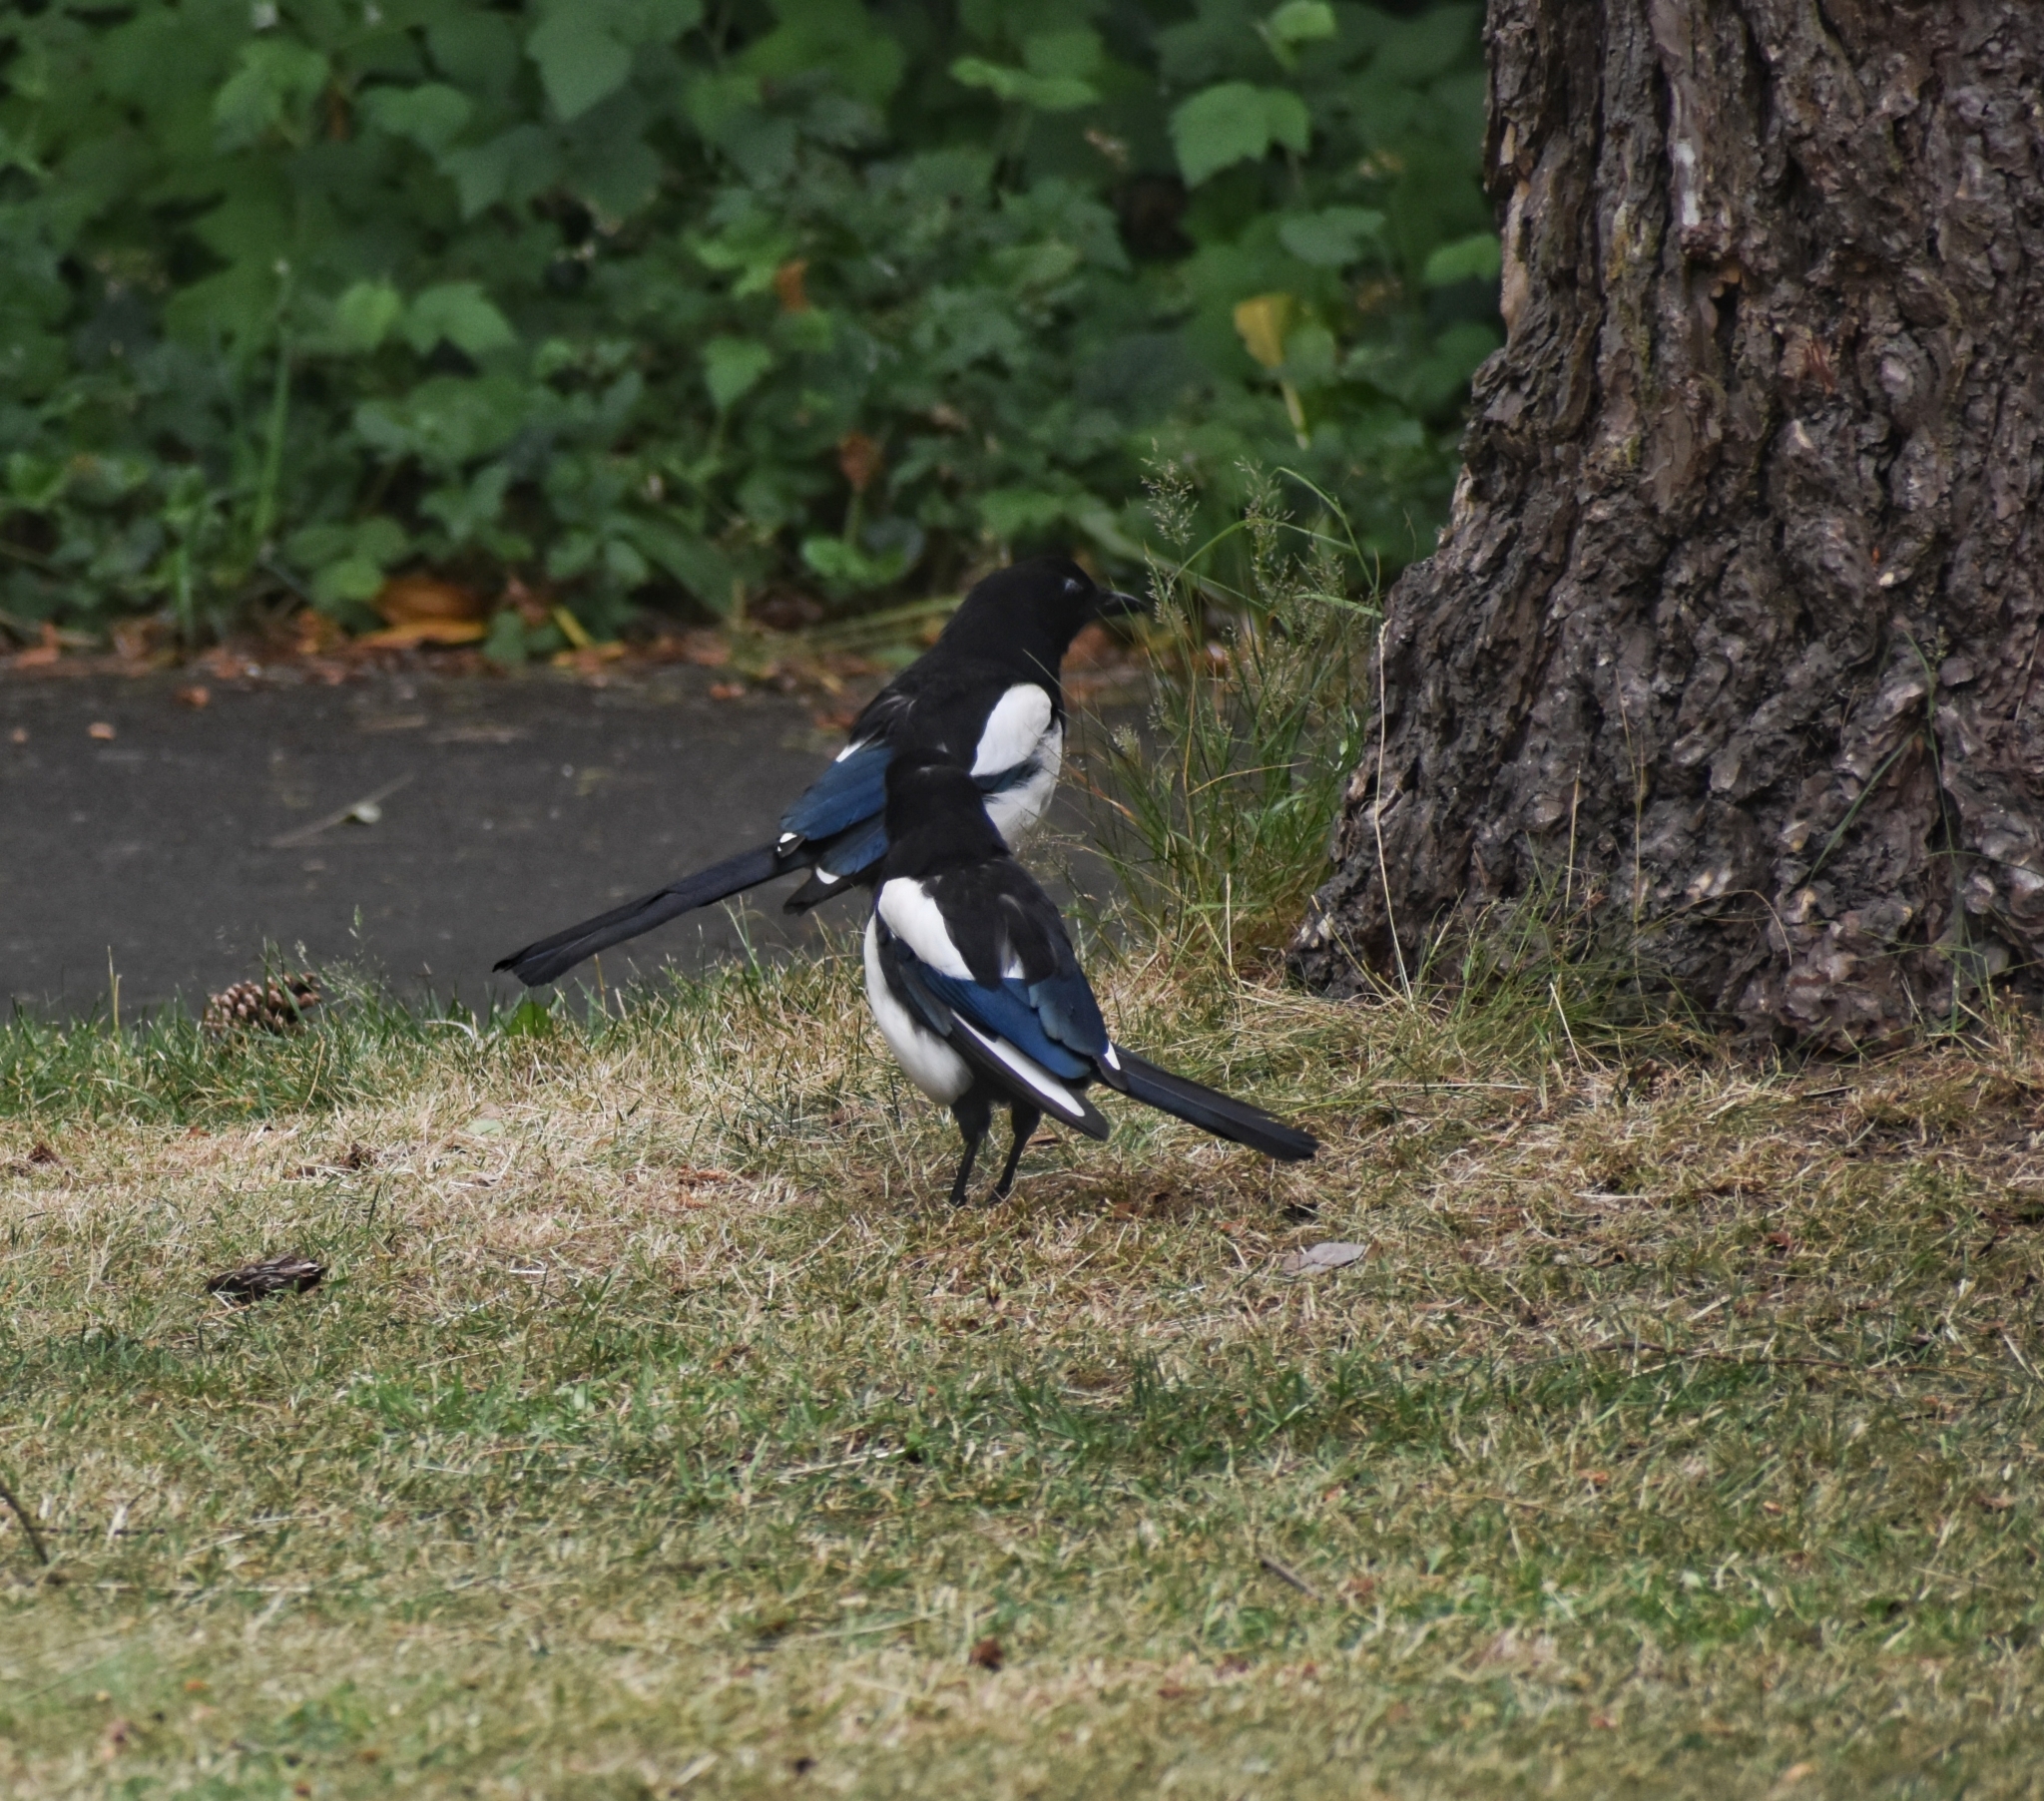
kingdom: Animalia
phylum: Chordata
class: Aves
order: Passeriformes
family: Corvidae
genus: Pica
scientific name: Pica pica
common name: Eurasian magpie
